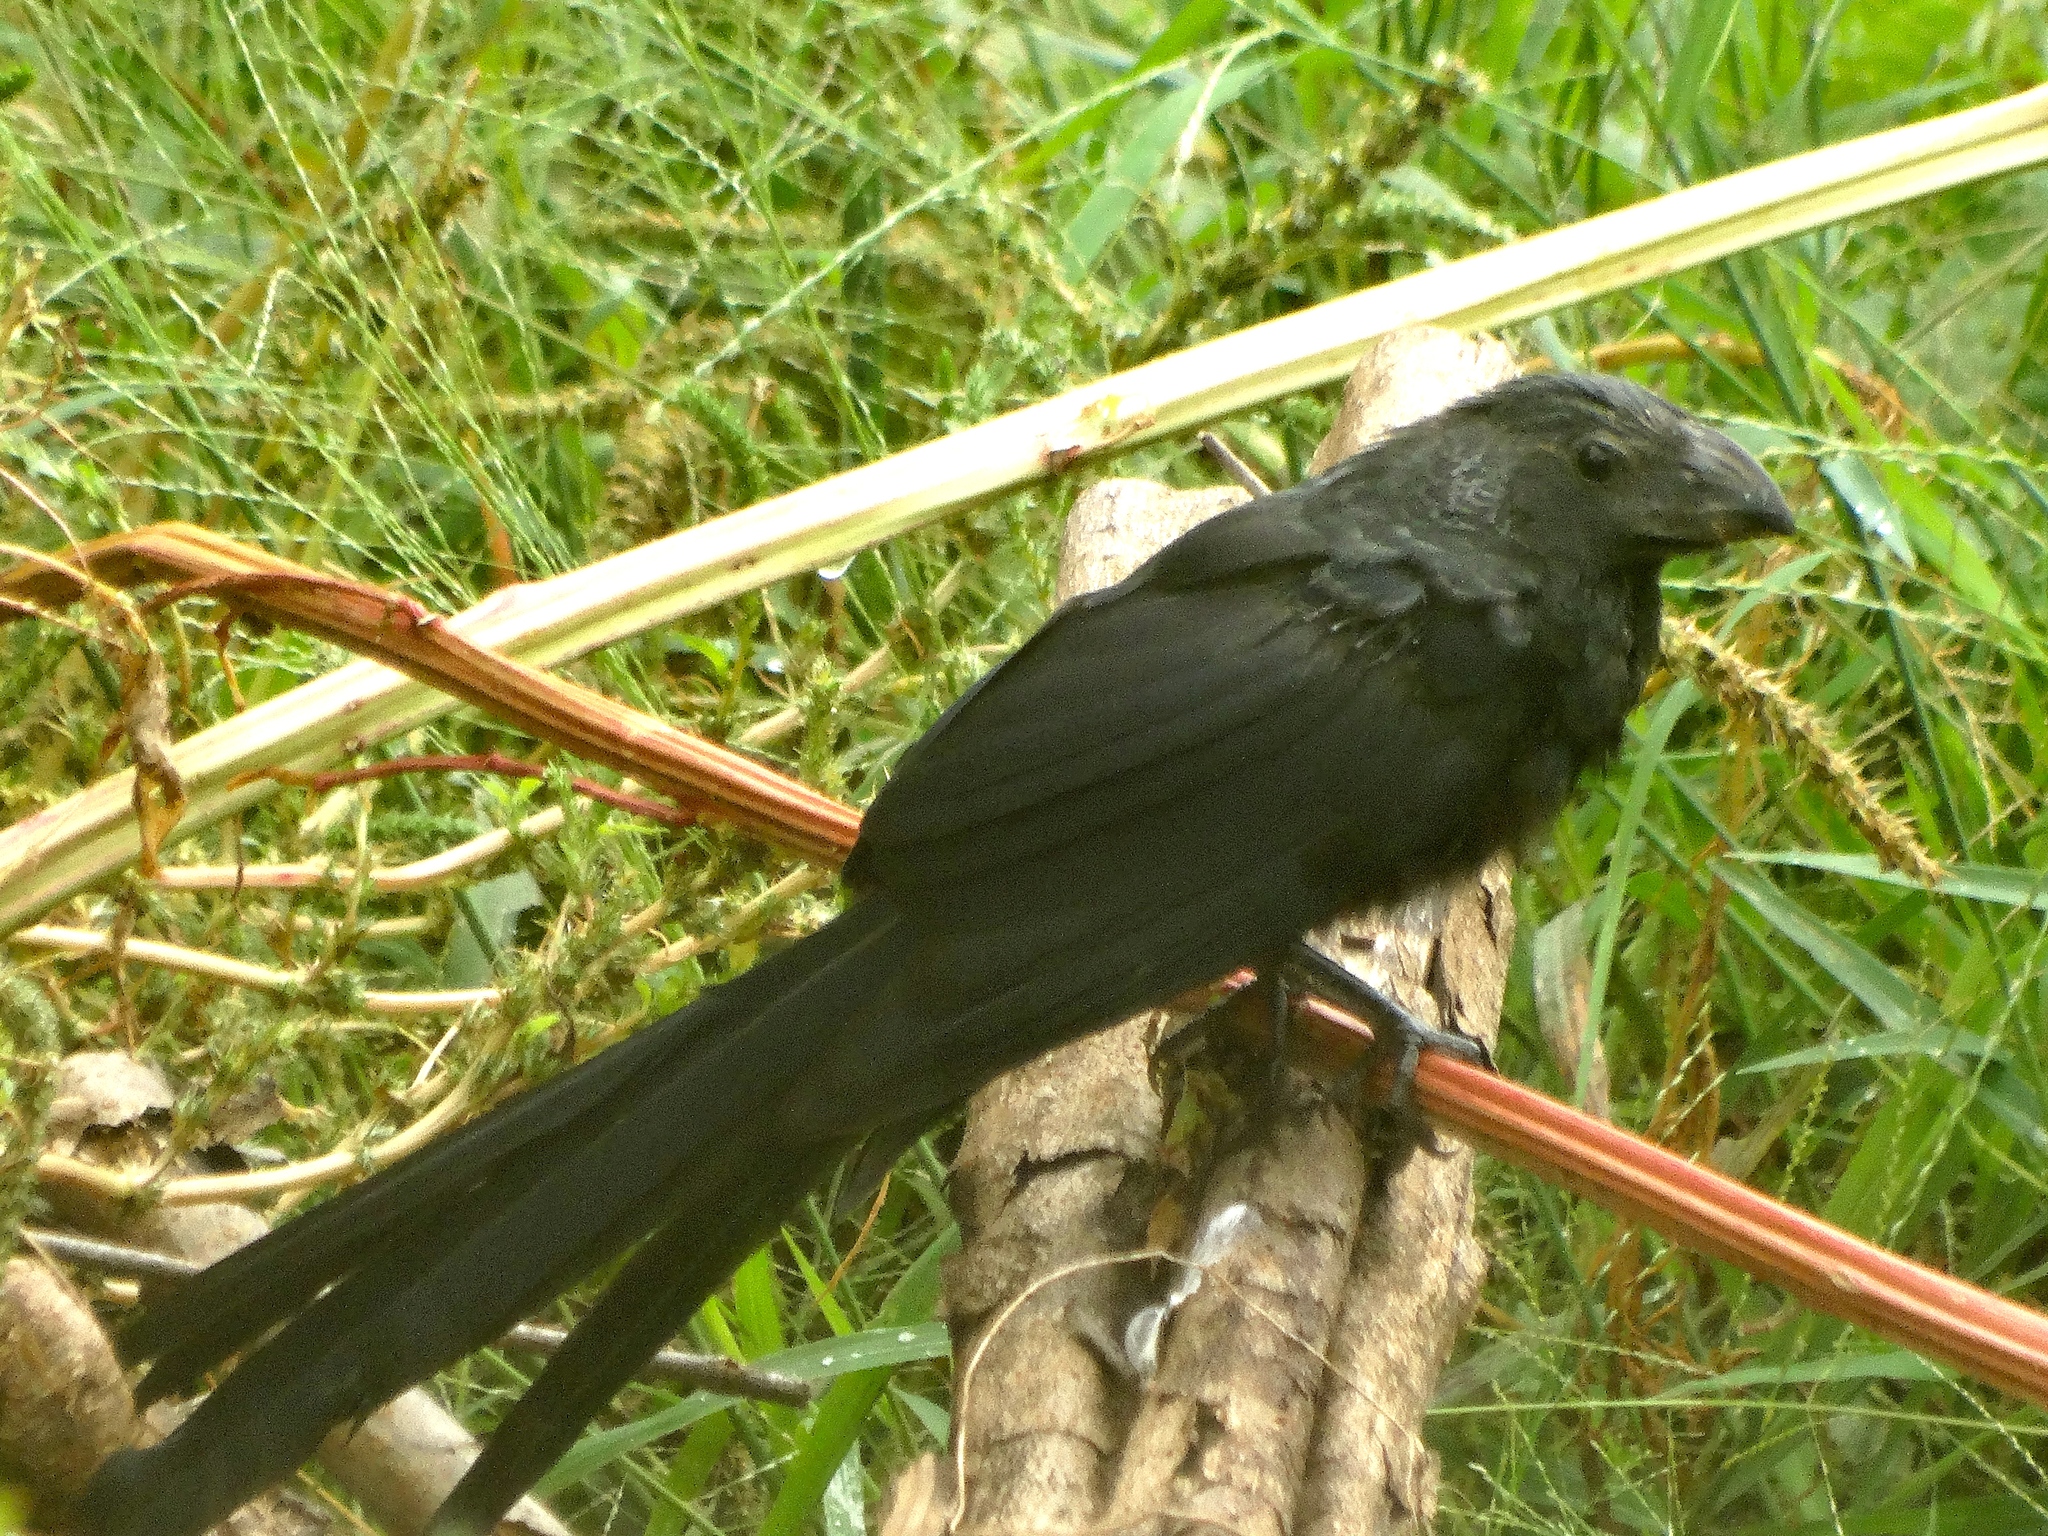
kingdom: Animalia
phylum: Chordata
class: Aves
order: Cuculiformes
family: Cuculidae
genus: Crotophaga
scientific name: Crotophaga sulcirostris
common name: Groove-billed ani
